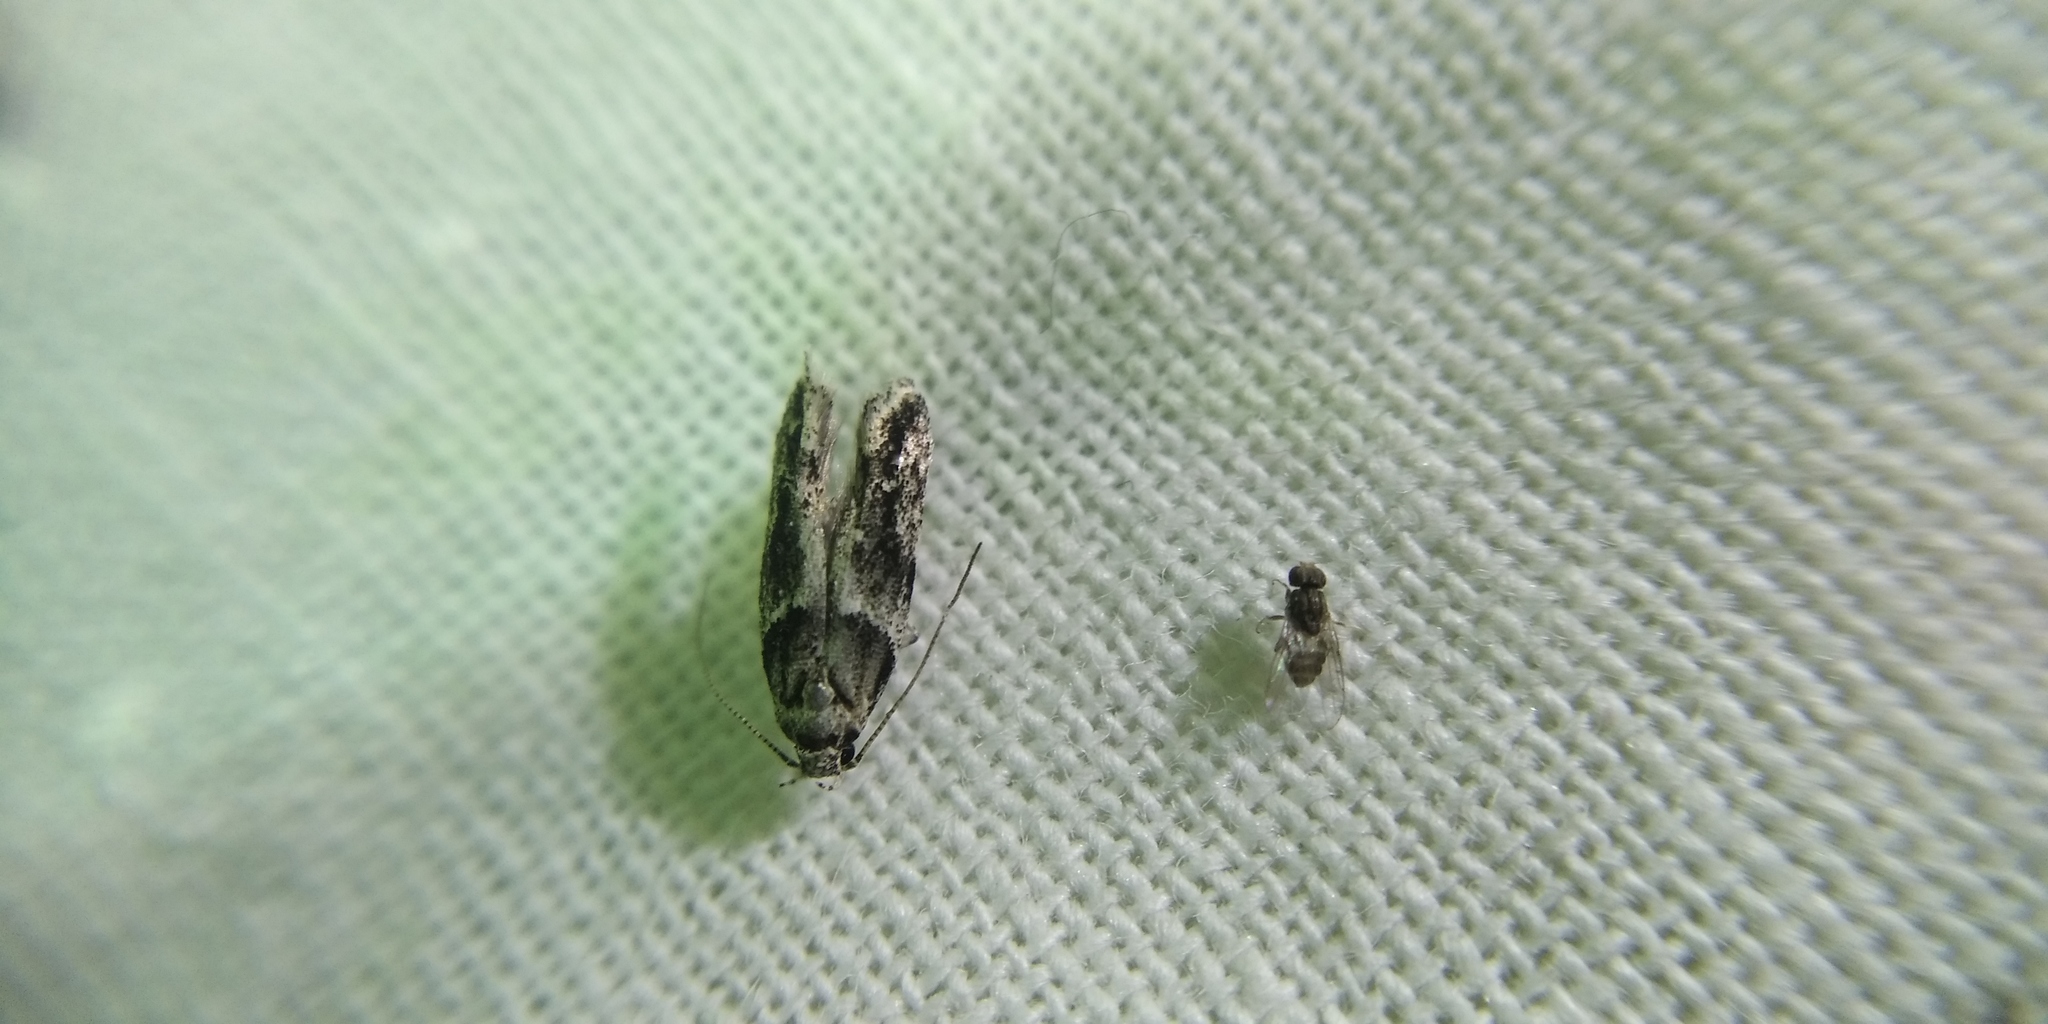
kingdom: Animalia
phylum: Arthropoda
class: Insecta
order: Lepidoptera
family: Gelechiidae
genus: Recurvaria
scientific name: Recurvaria nanella
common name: Gelechiid moth
